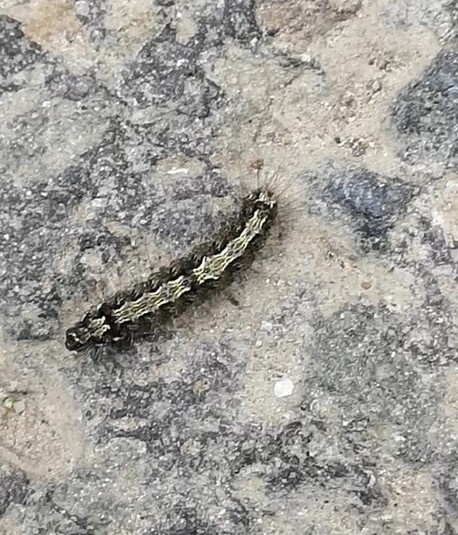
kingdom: Animalia
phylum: Arthropoda
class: Insecta
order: Lepidoptera
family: Erebidae
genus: Katha
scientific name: Katha depressa
